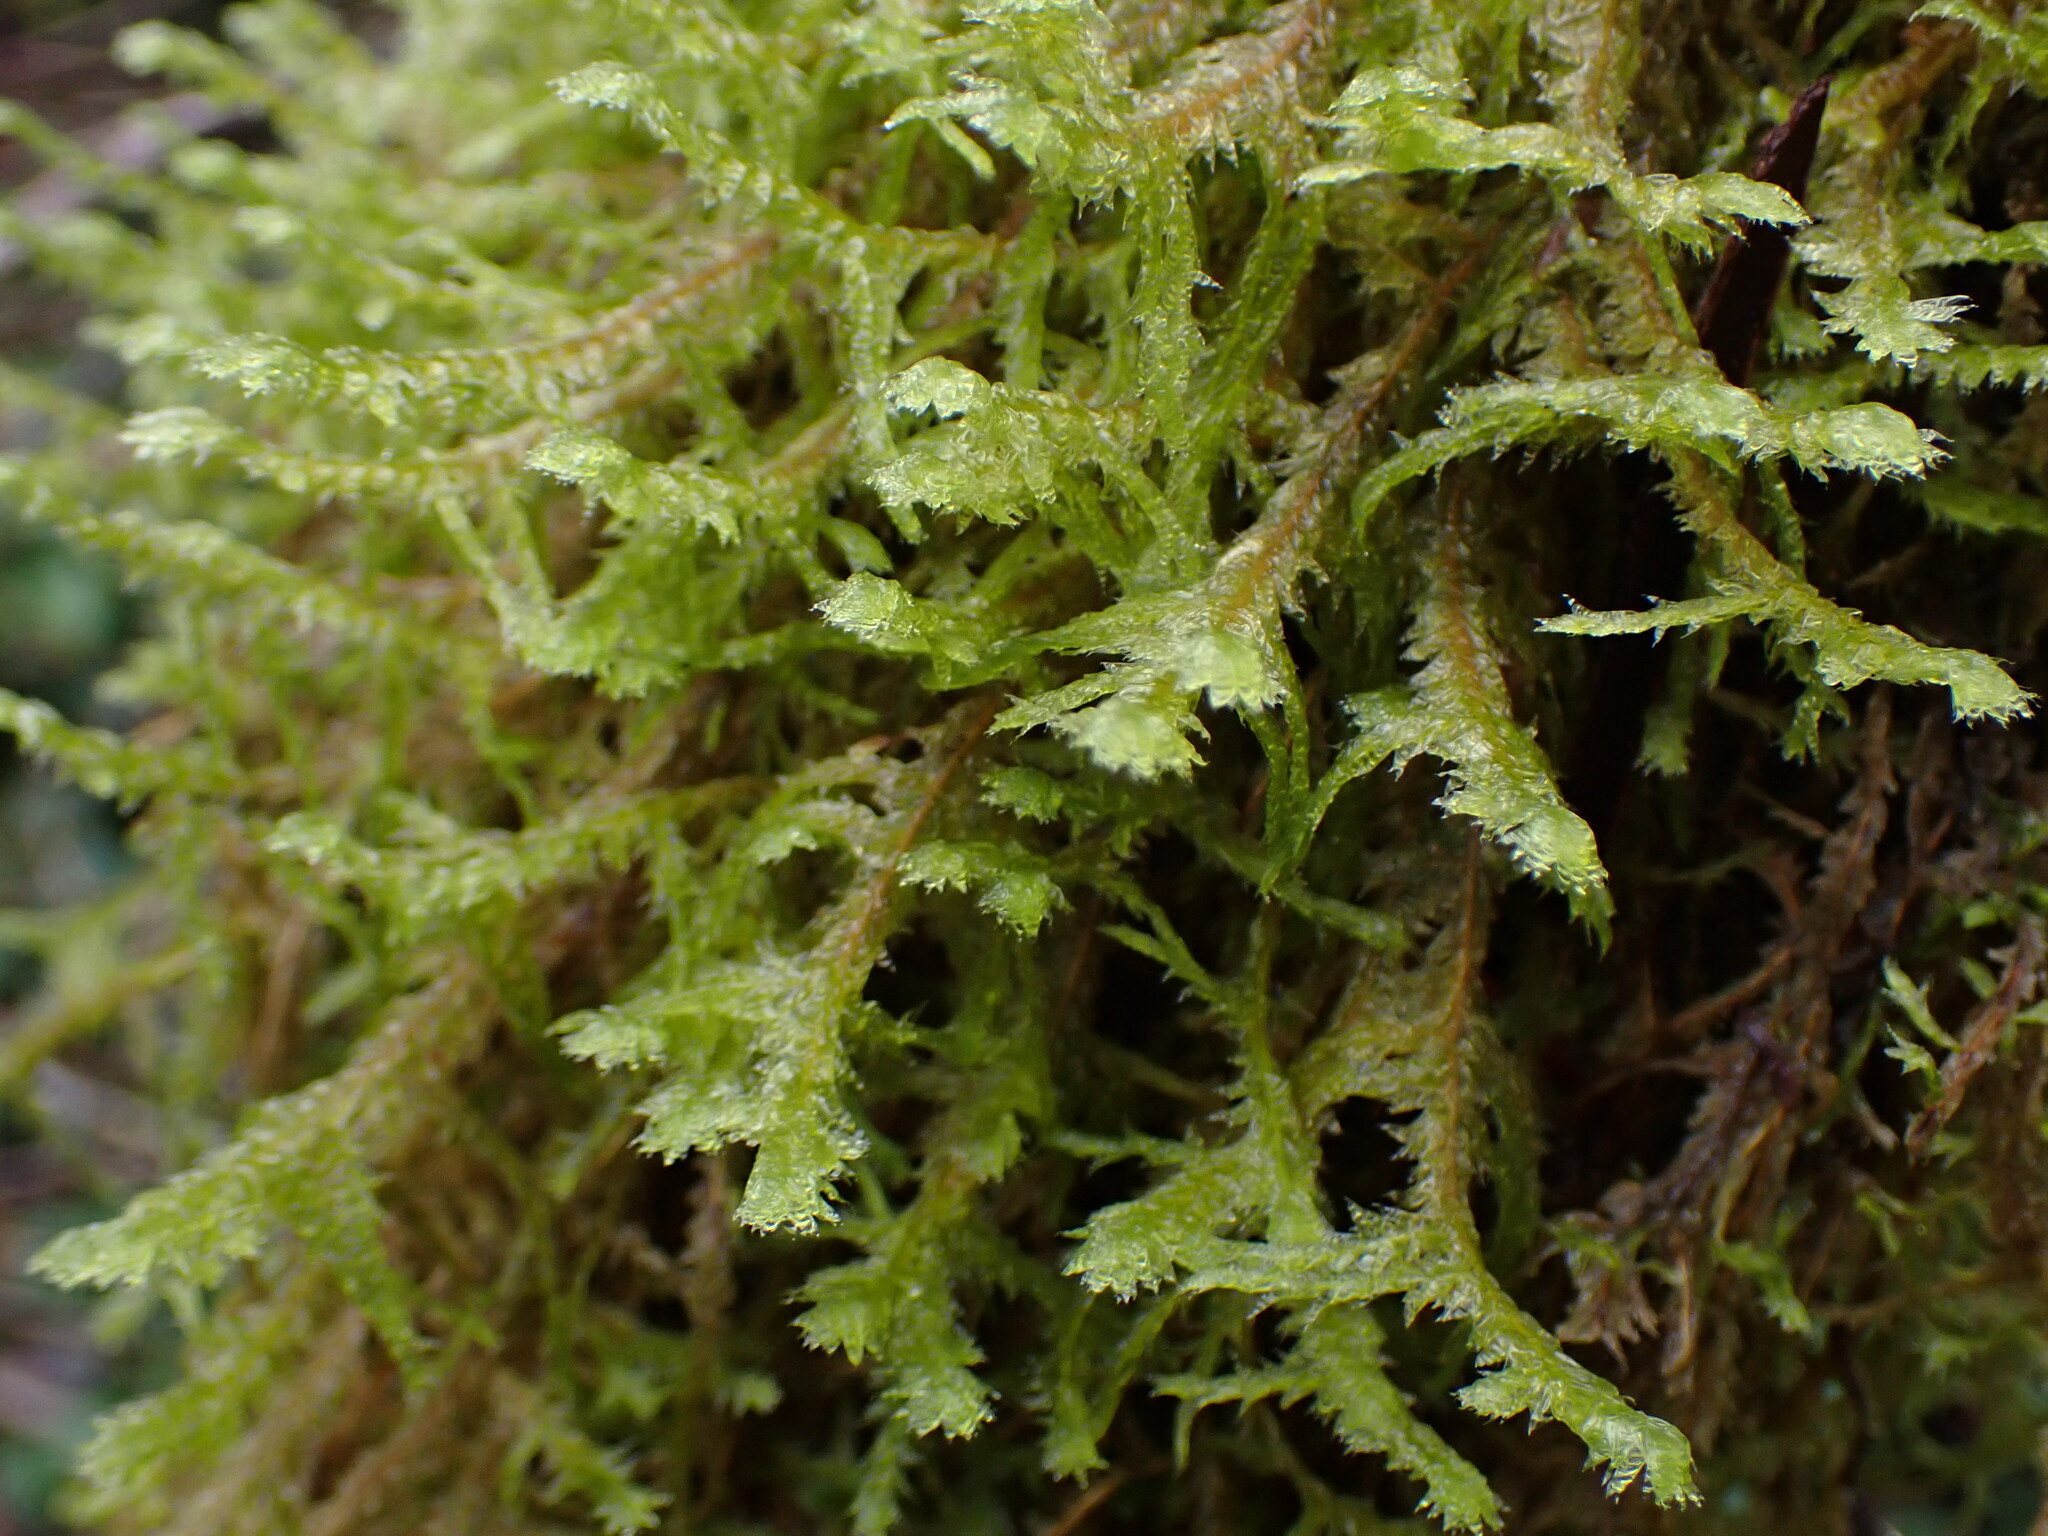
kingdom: Plantae
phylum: Bryophyta
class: Bryopsida
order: Hypnales
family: Neckeraceae
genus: Neckera
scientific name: Neckera douglasii
